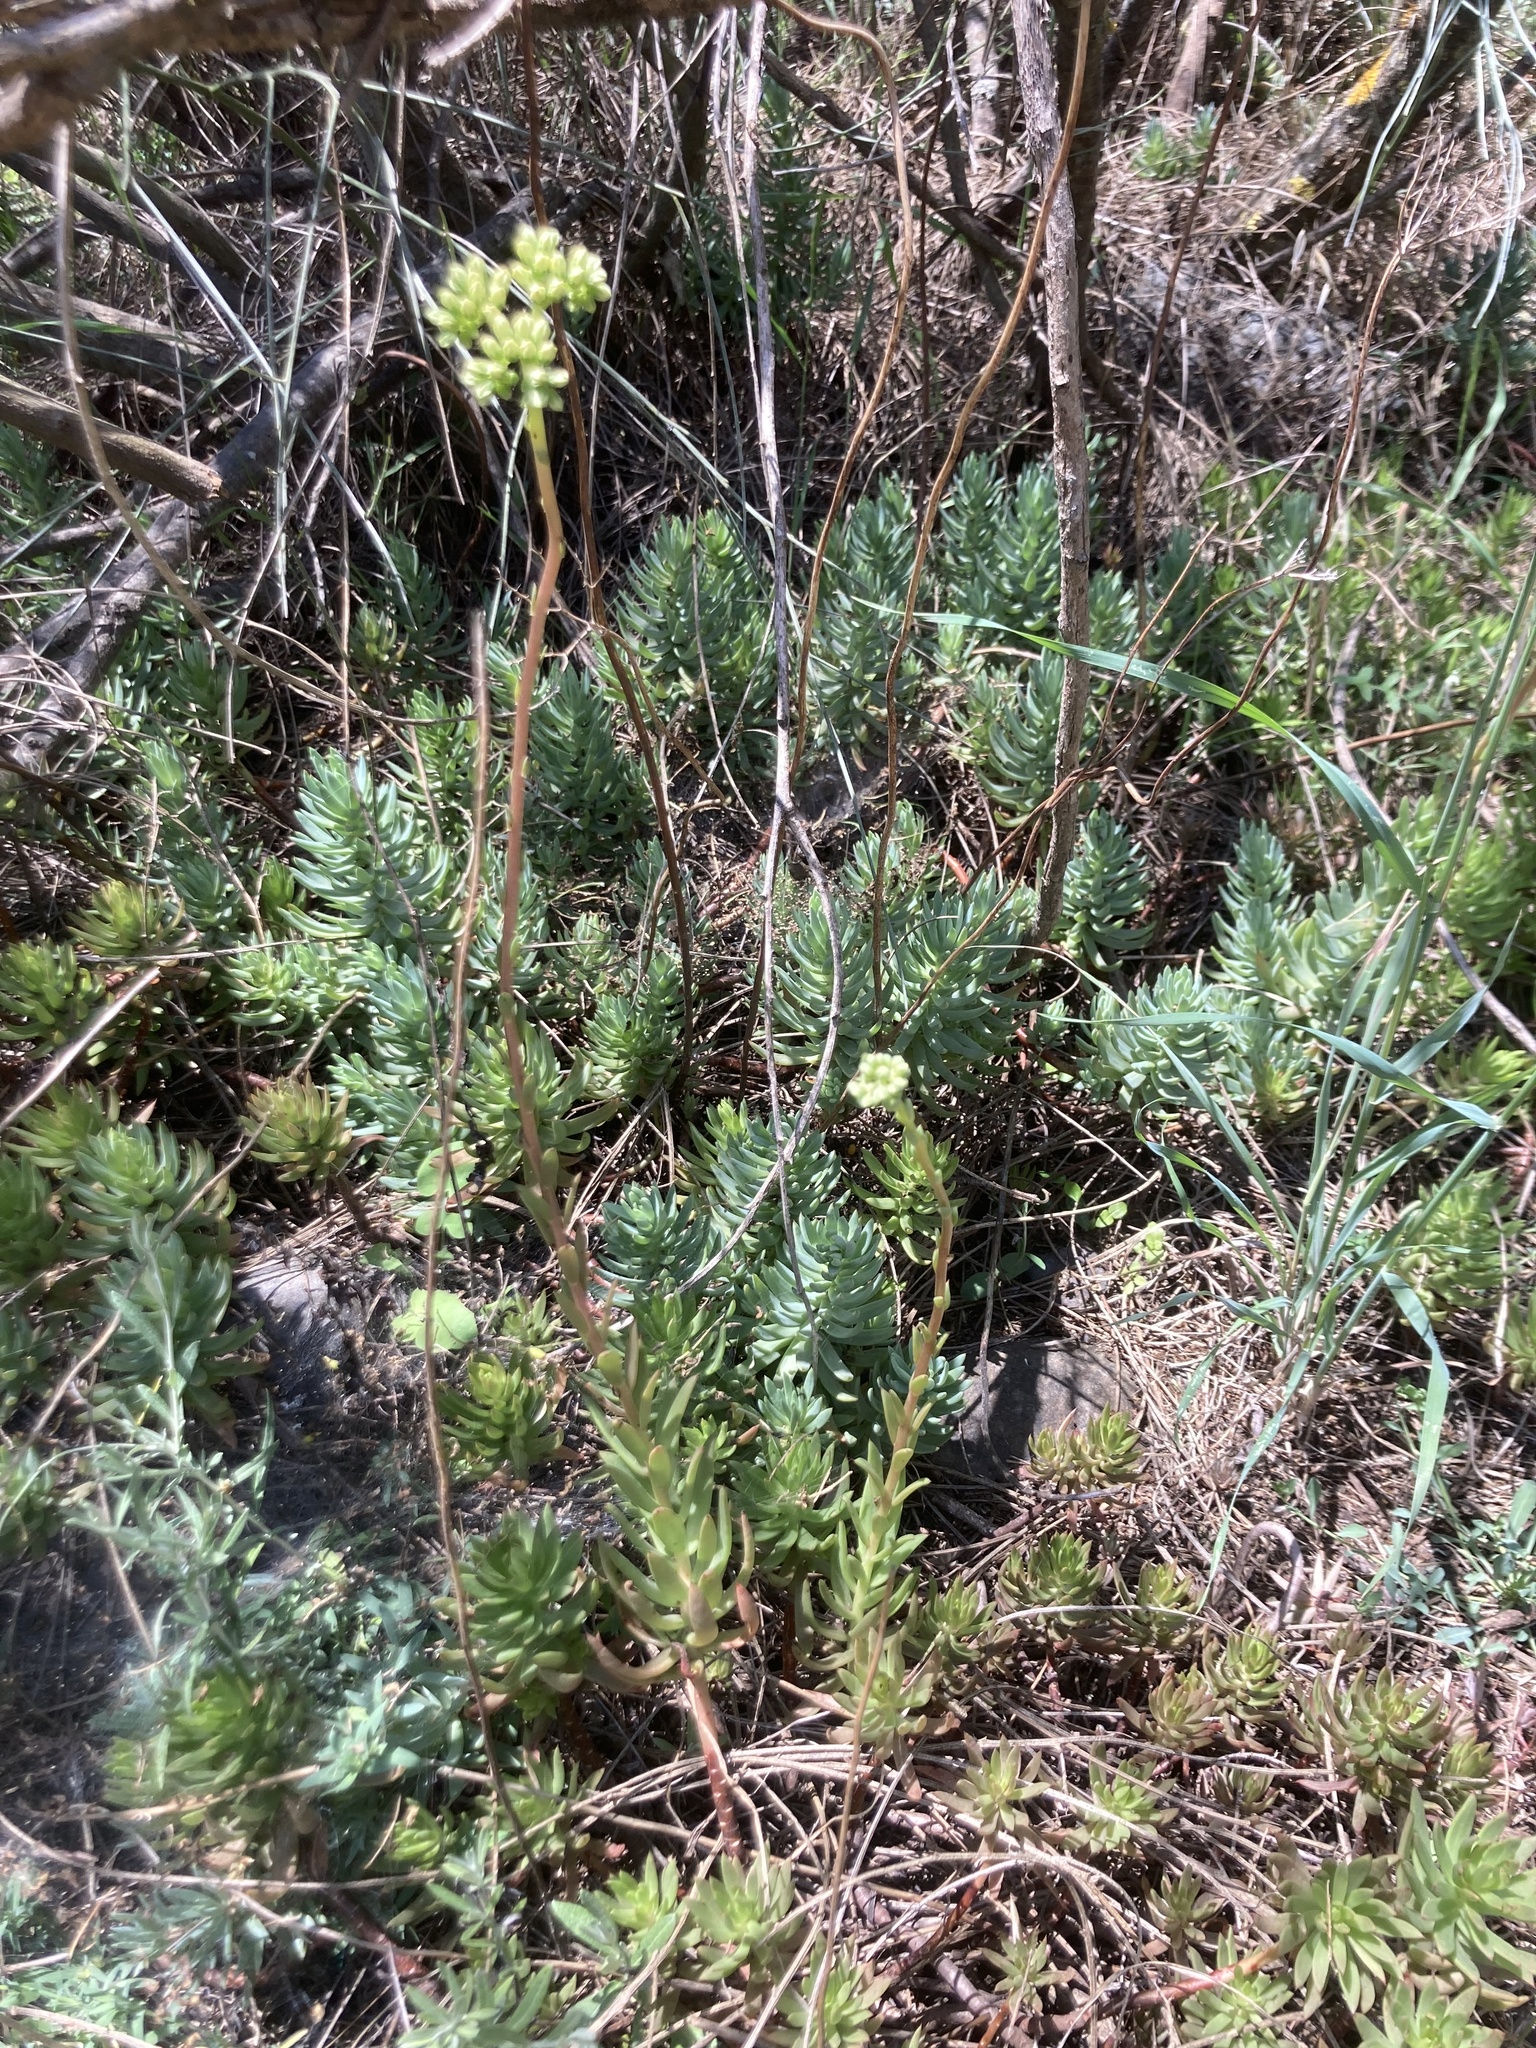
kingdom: Plantae
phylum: Tracheophyta
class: Magnoliopsida
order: Saxifragales
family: Crassulaceae
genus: Petrosedum
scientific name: Petrosedum sediforme
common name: Pale stonecrop
